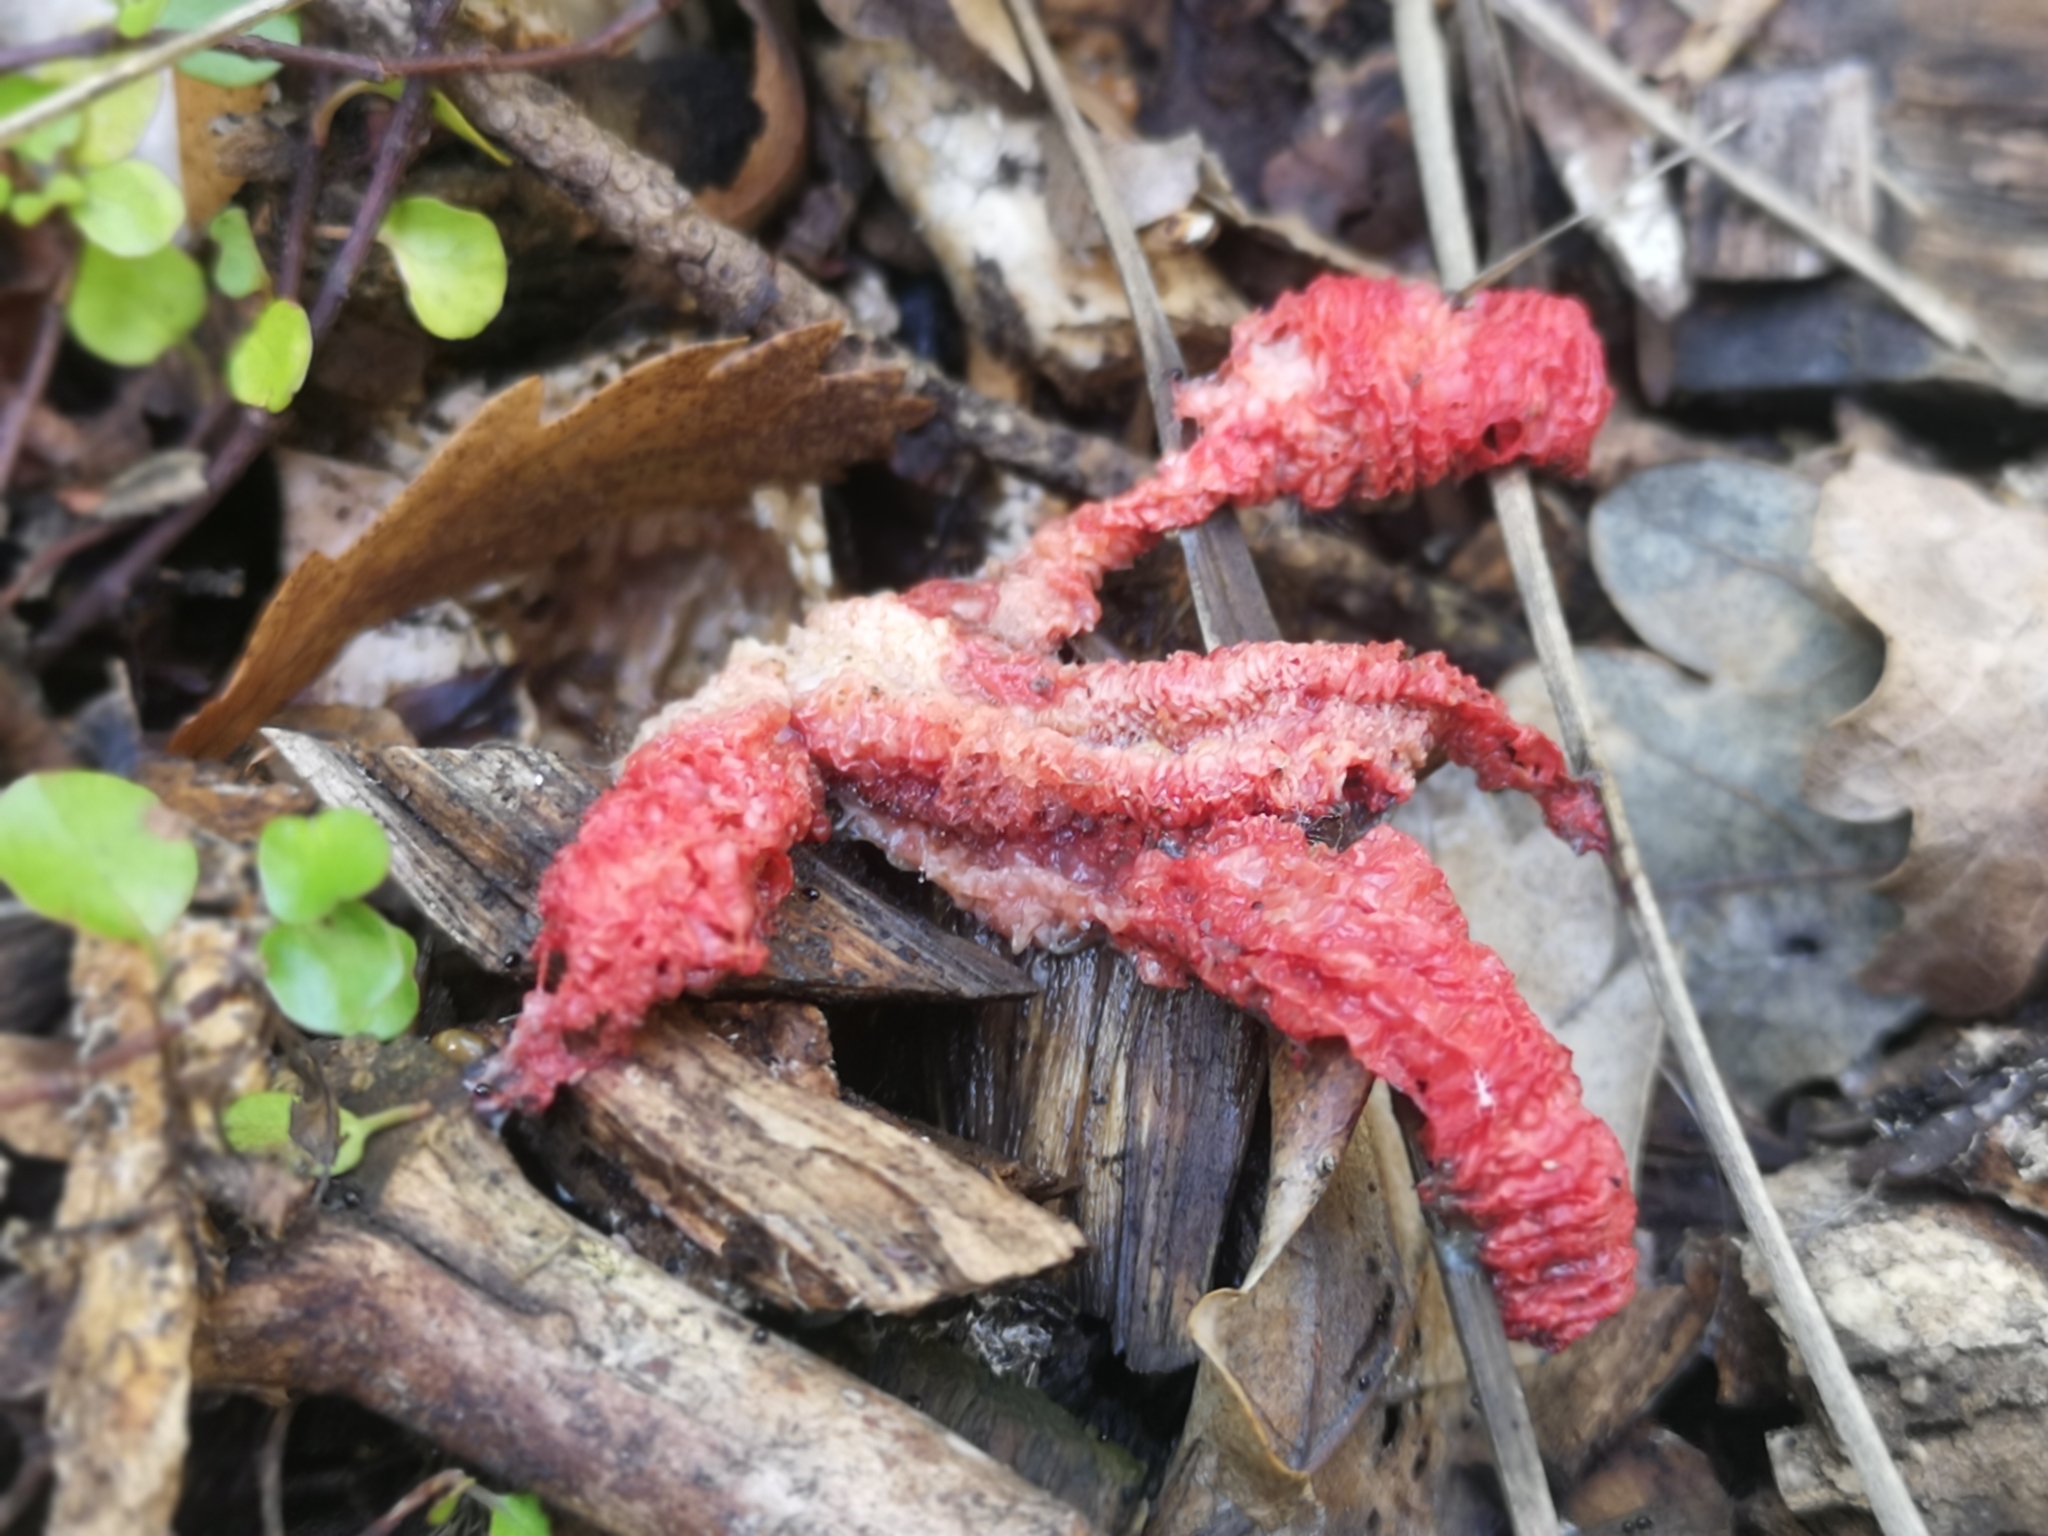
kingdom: Fungi
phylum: Basidiomycota
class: Agaricomycetes
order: Phallales
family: Phallaceae
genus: Clathrus
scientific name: Clathrus archeri
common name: Devil's fingers
